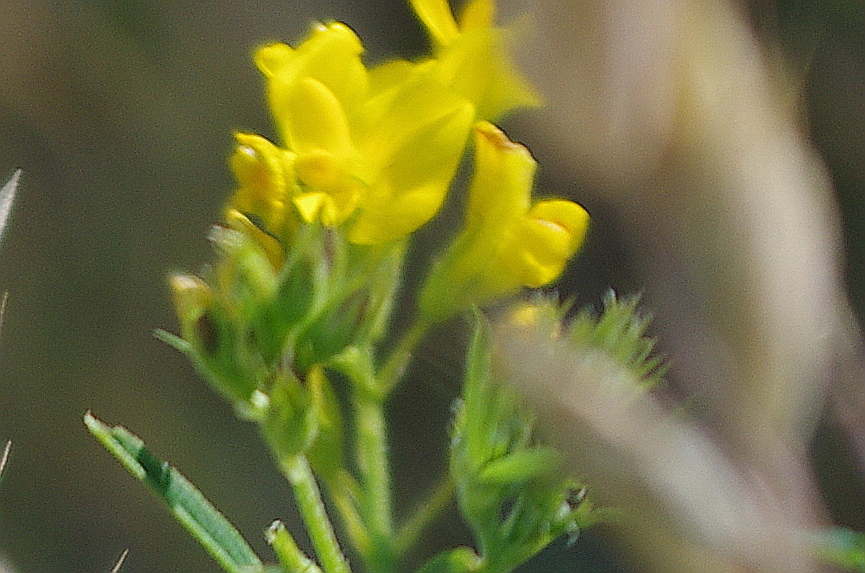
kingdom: Plantae
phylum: Tracheophyta
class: Magnoliopsida
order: Fabales
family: Fabaceae
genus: Medicago
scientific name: Medicago falcata
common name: Sickle medick
